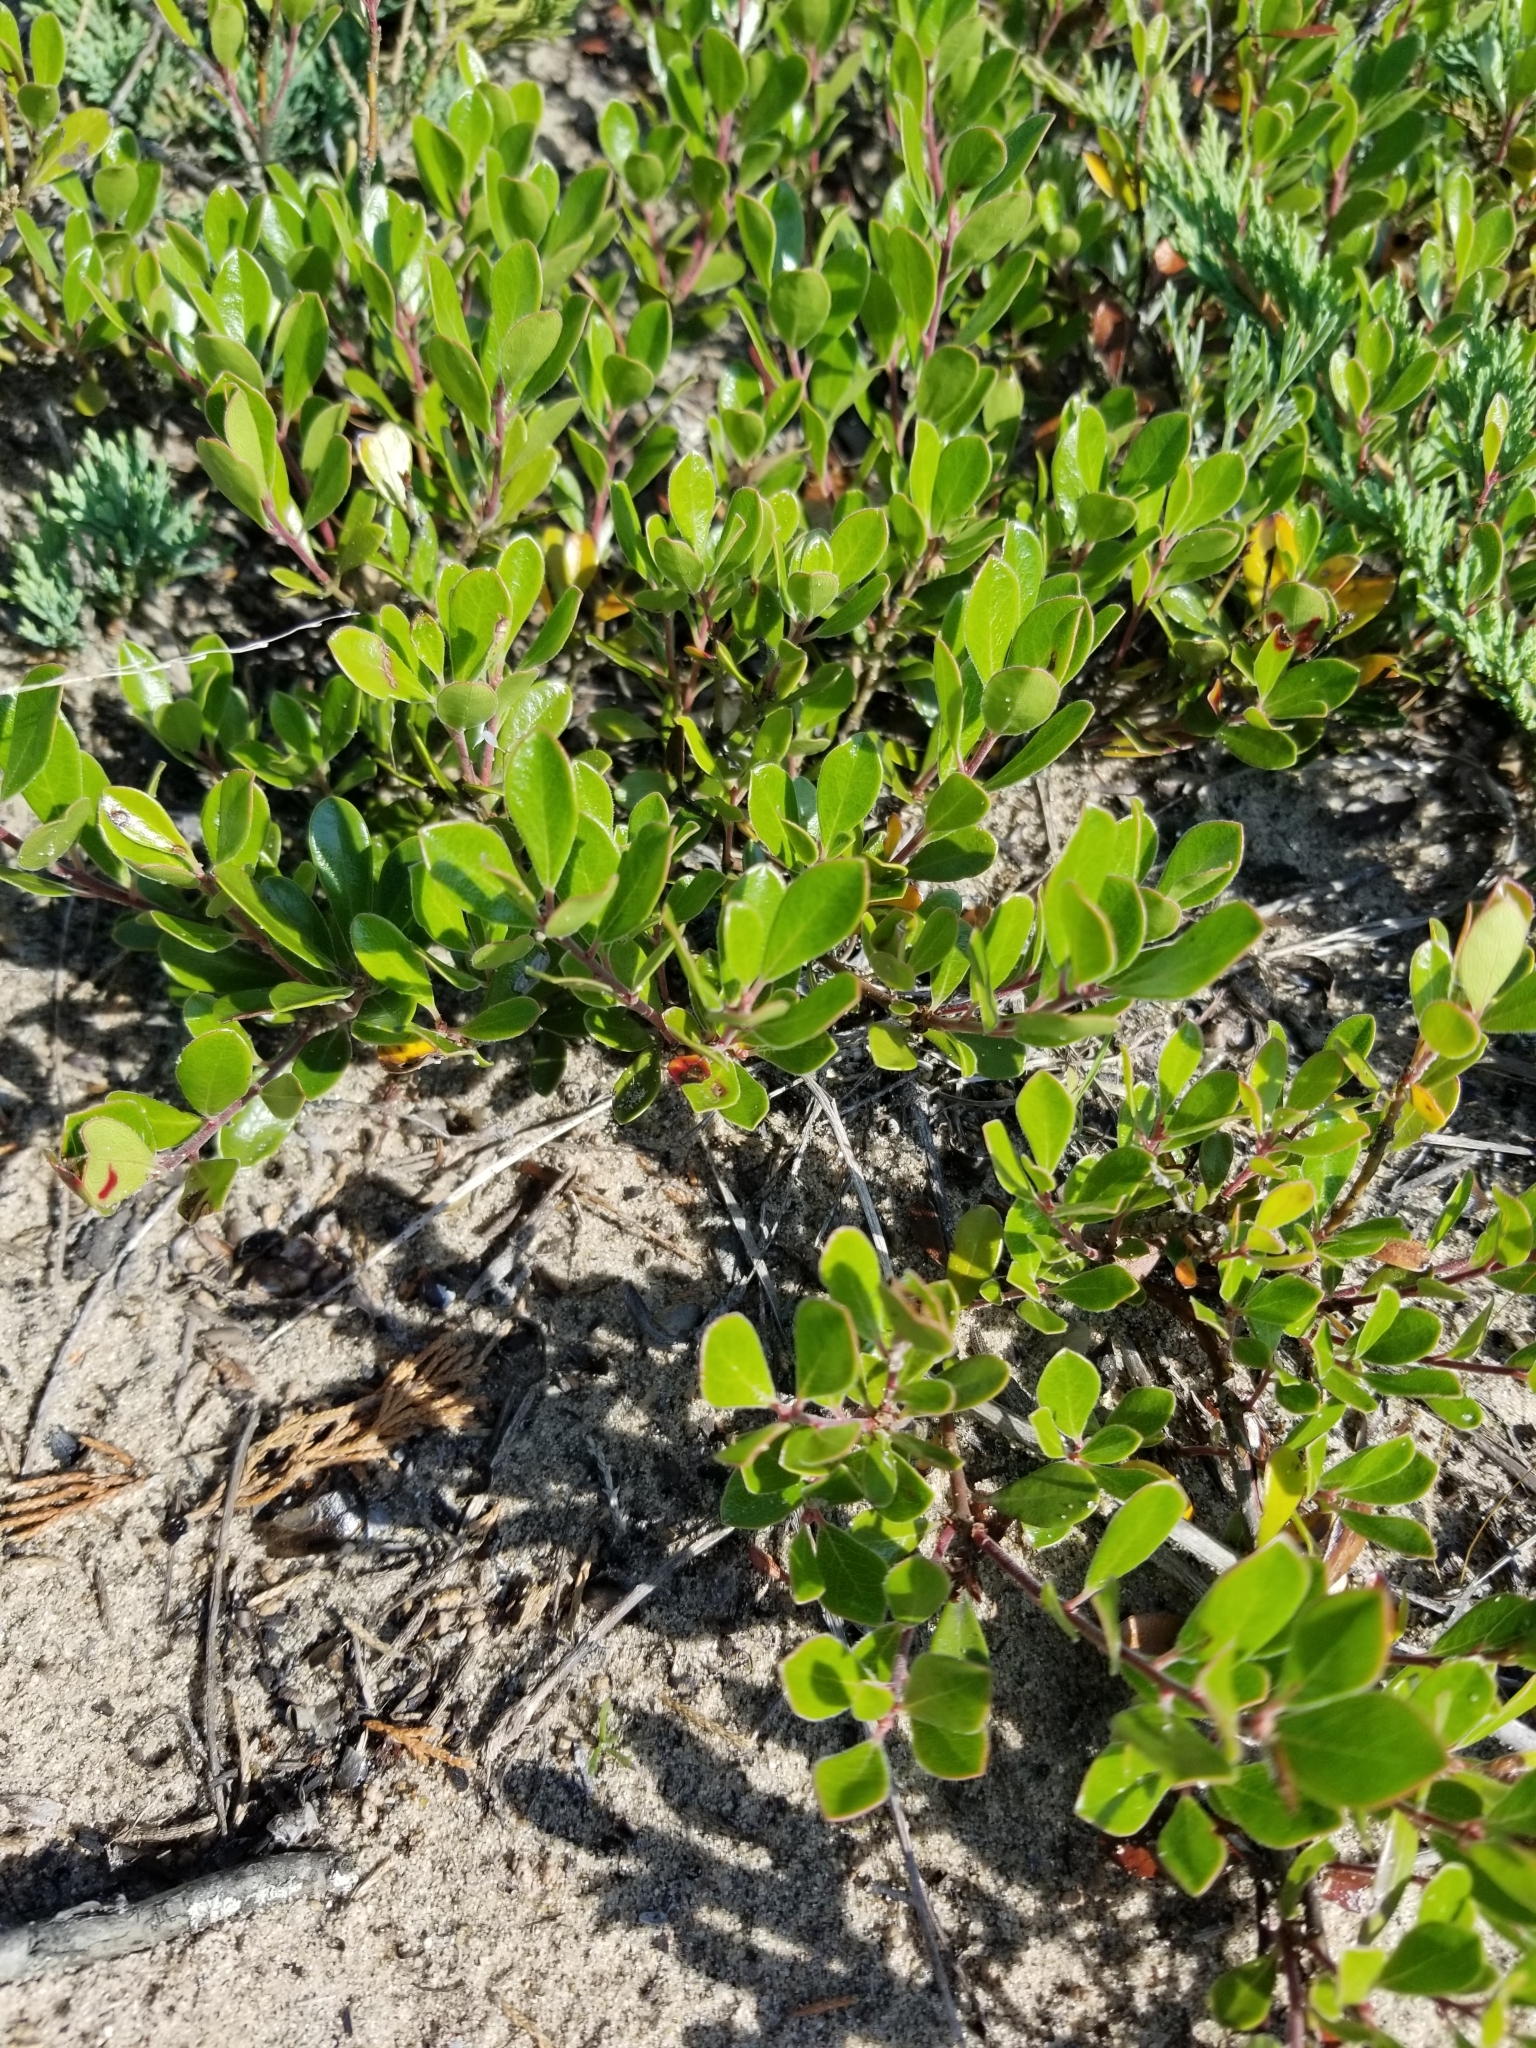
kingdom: Plantae
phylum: Tracheophyta
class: Magnoliopsida
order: Ericales
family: Ericaceae
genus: Arctostaphylos
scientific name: Arctostaphylos uva-ursi
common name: Bearberry
